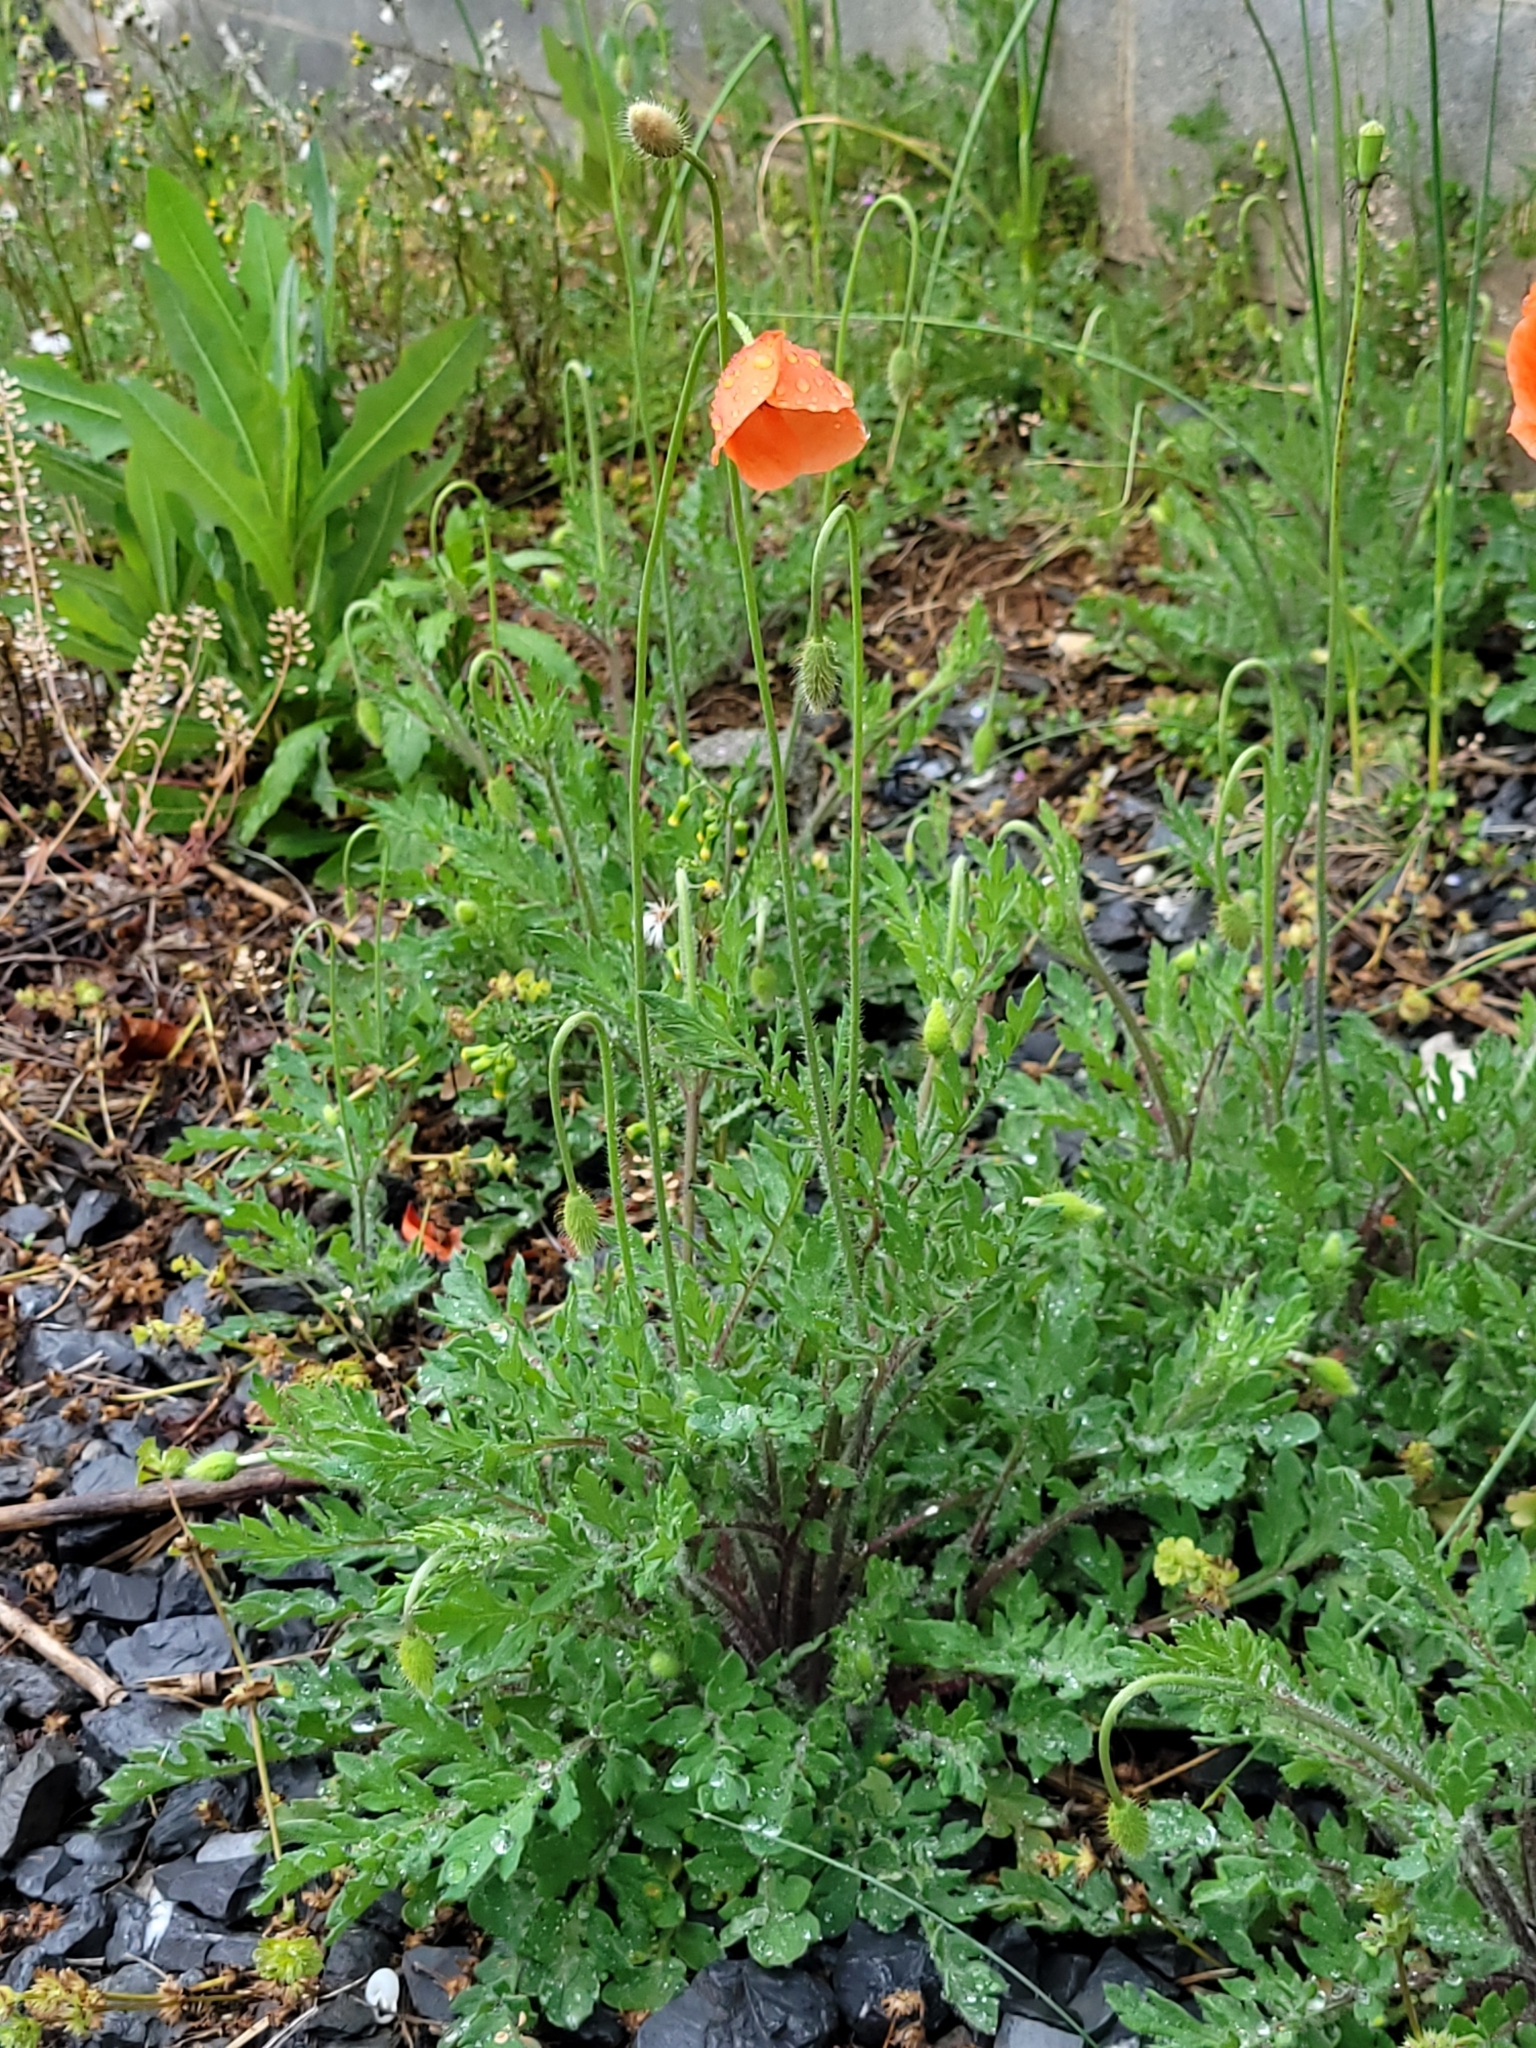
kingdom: Plantae
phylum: Tracheophyta
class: Magnoliopsida
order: Ranunculales
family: Papaveraceae
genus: Papaver
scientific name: Papaver dubium
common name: Long-headed poppy
